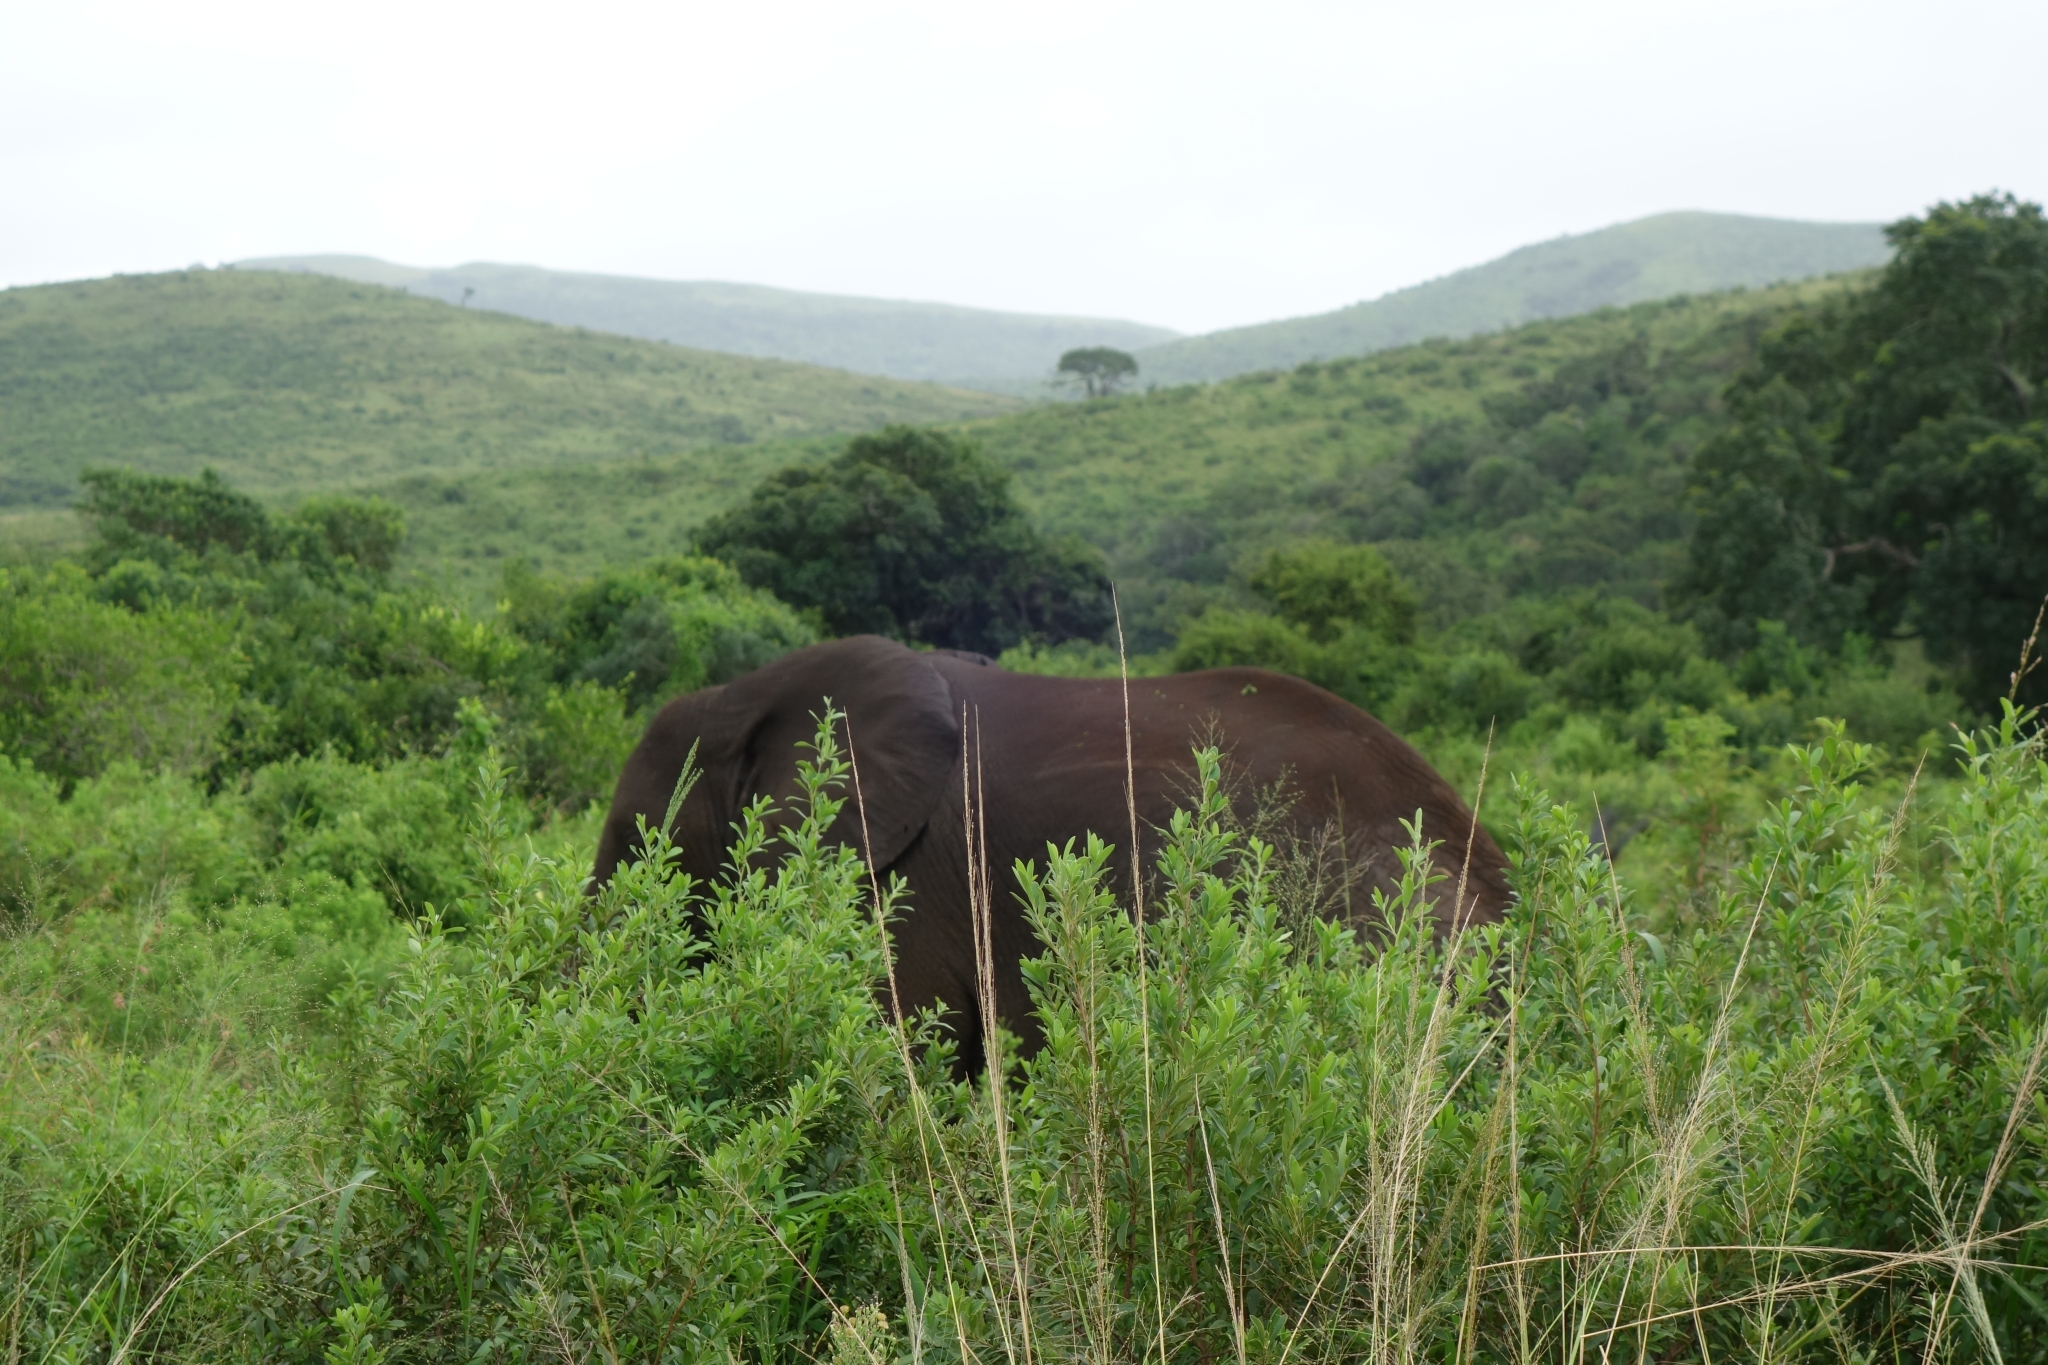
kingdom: Animalia
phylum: Chordata
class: Mammalia
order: Proboscidea
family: Elephantidae
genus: Loxodonta
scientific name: Loxodonta africana
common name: African elephant
